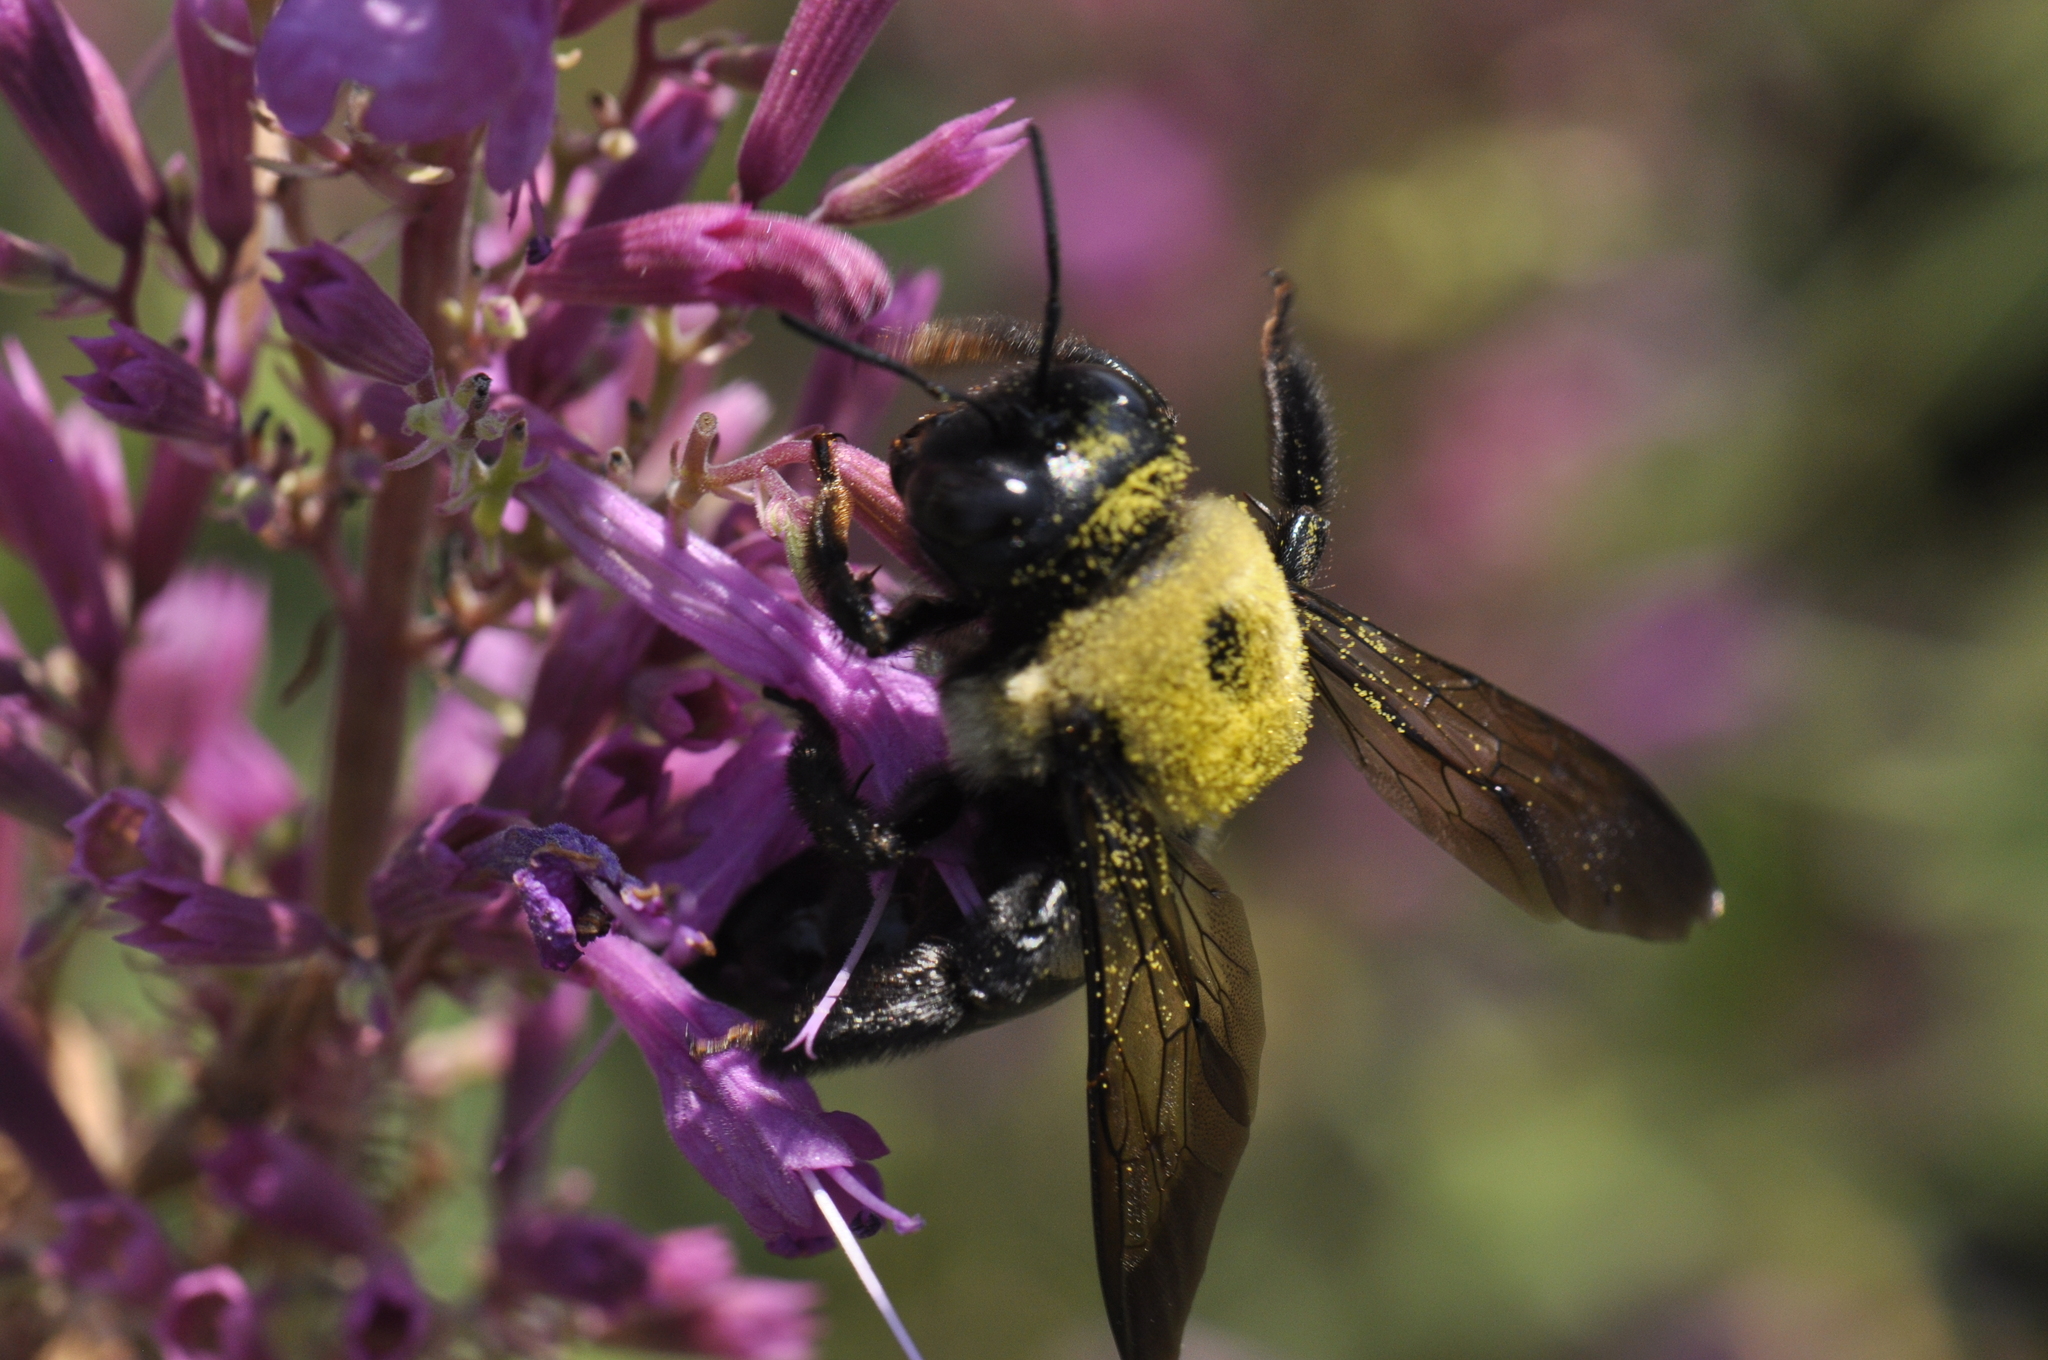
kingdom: Animalia
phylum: Arthropoda
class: Insecta
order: Hymenoptera
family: Apidae
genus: Xylocopa
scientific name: Xylocopa virginica
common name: Carpenter bee
